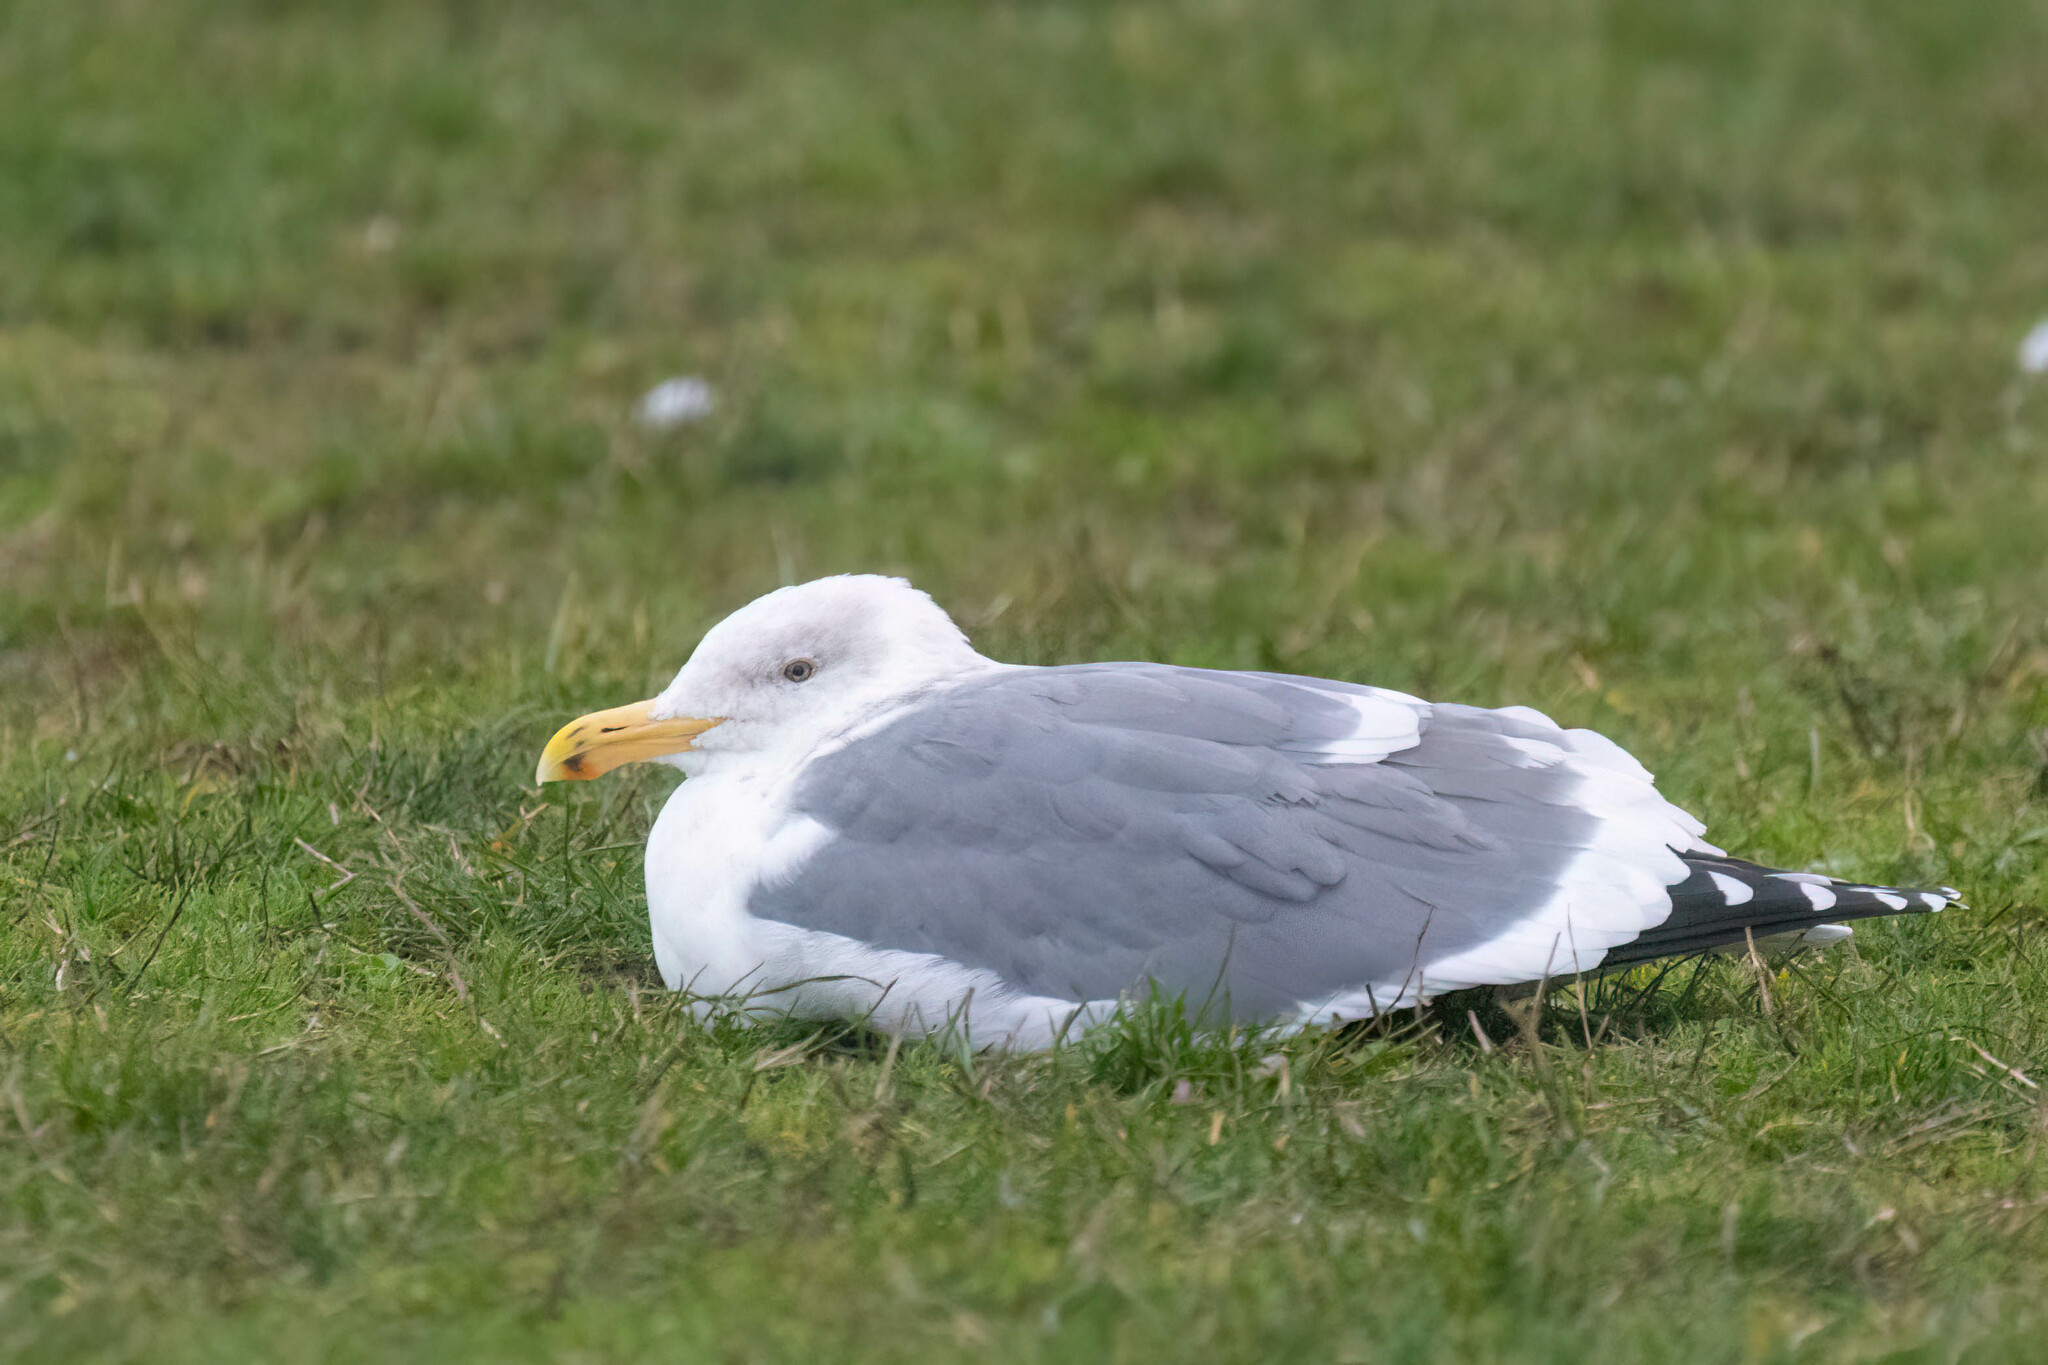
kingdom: Animalia
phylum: Chordata
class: Aves
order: Charadriiformes
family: Laridae
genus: Larus
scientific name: Larus occidentalis
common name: Western gull
